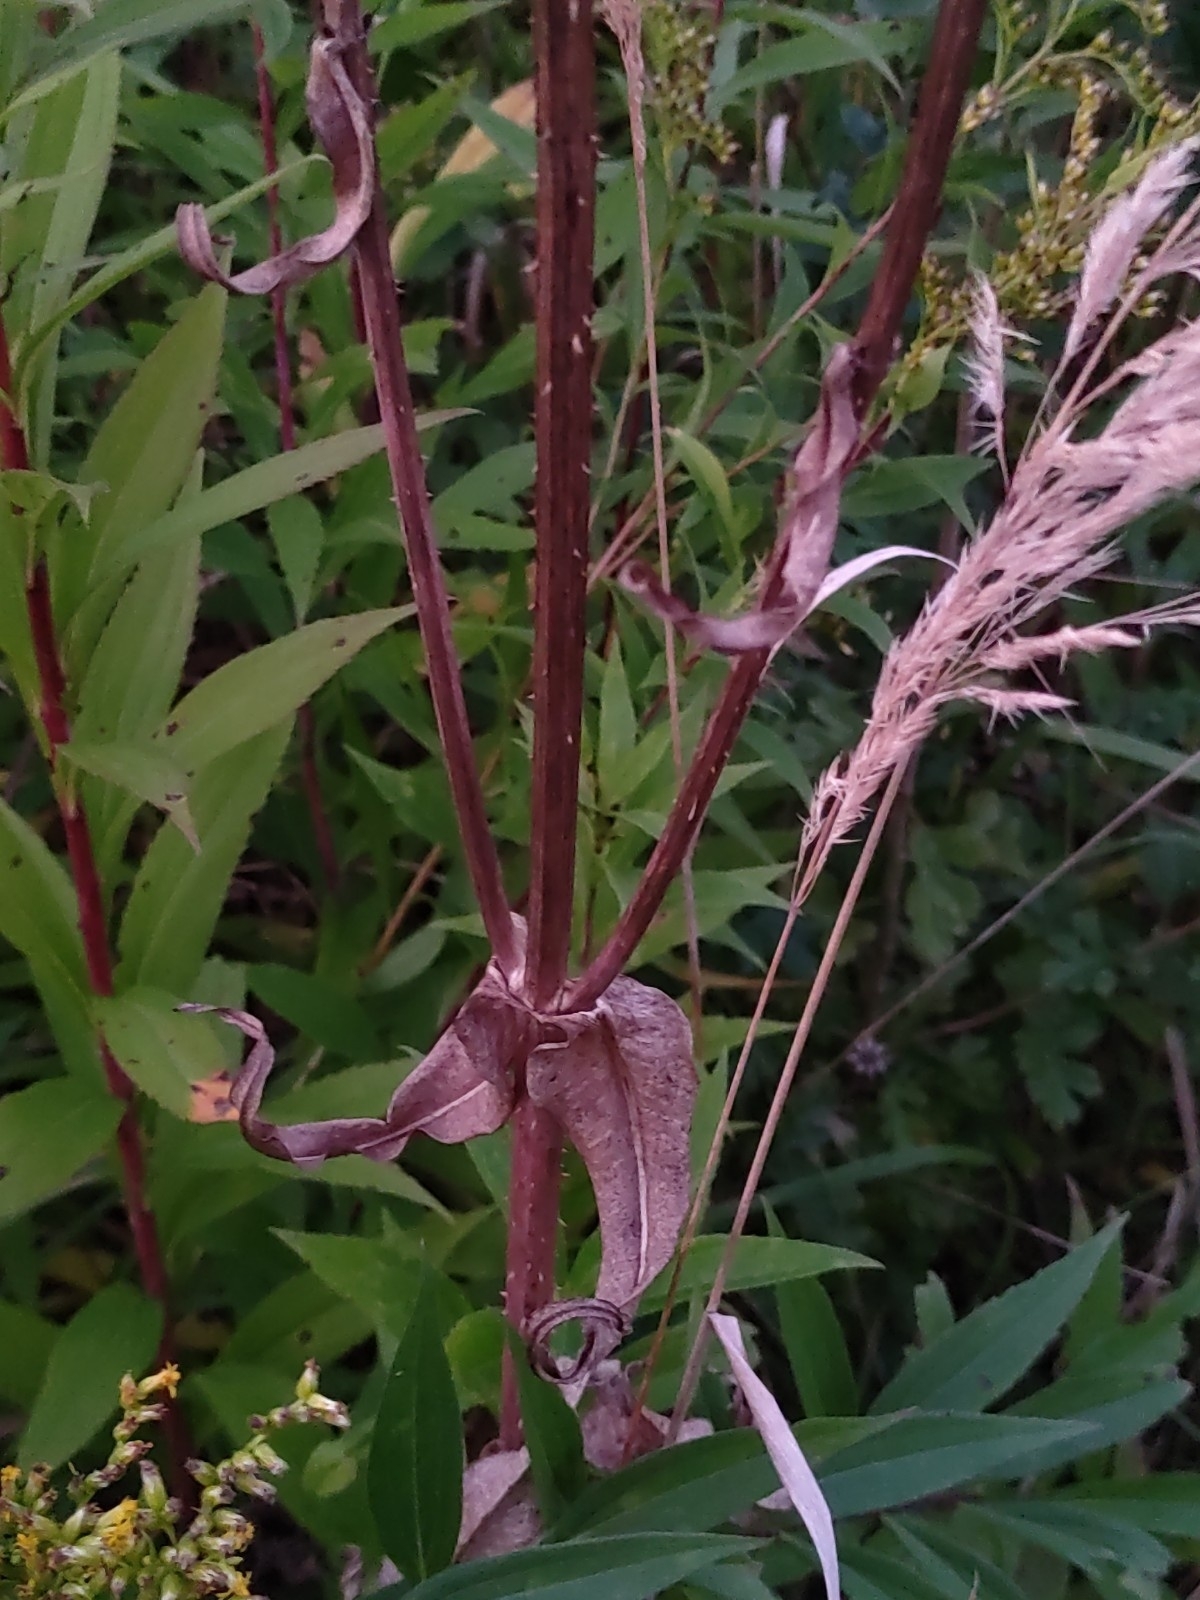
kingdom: Plantae
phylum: Tracheophyta
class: Magnoliopsida
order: Dipsacales
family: Caprifoliaceae
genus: Dipsacus
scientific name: Dipsacus fullonum
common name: Teasel
